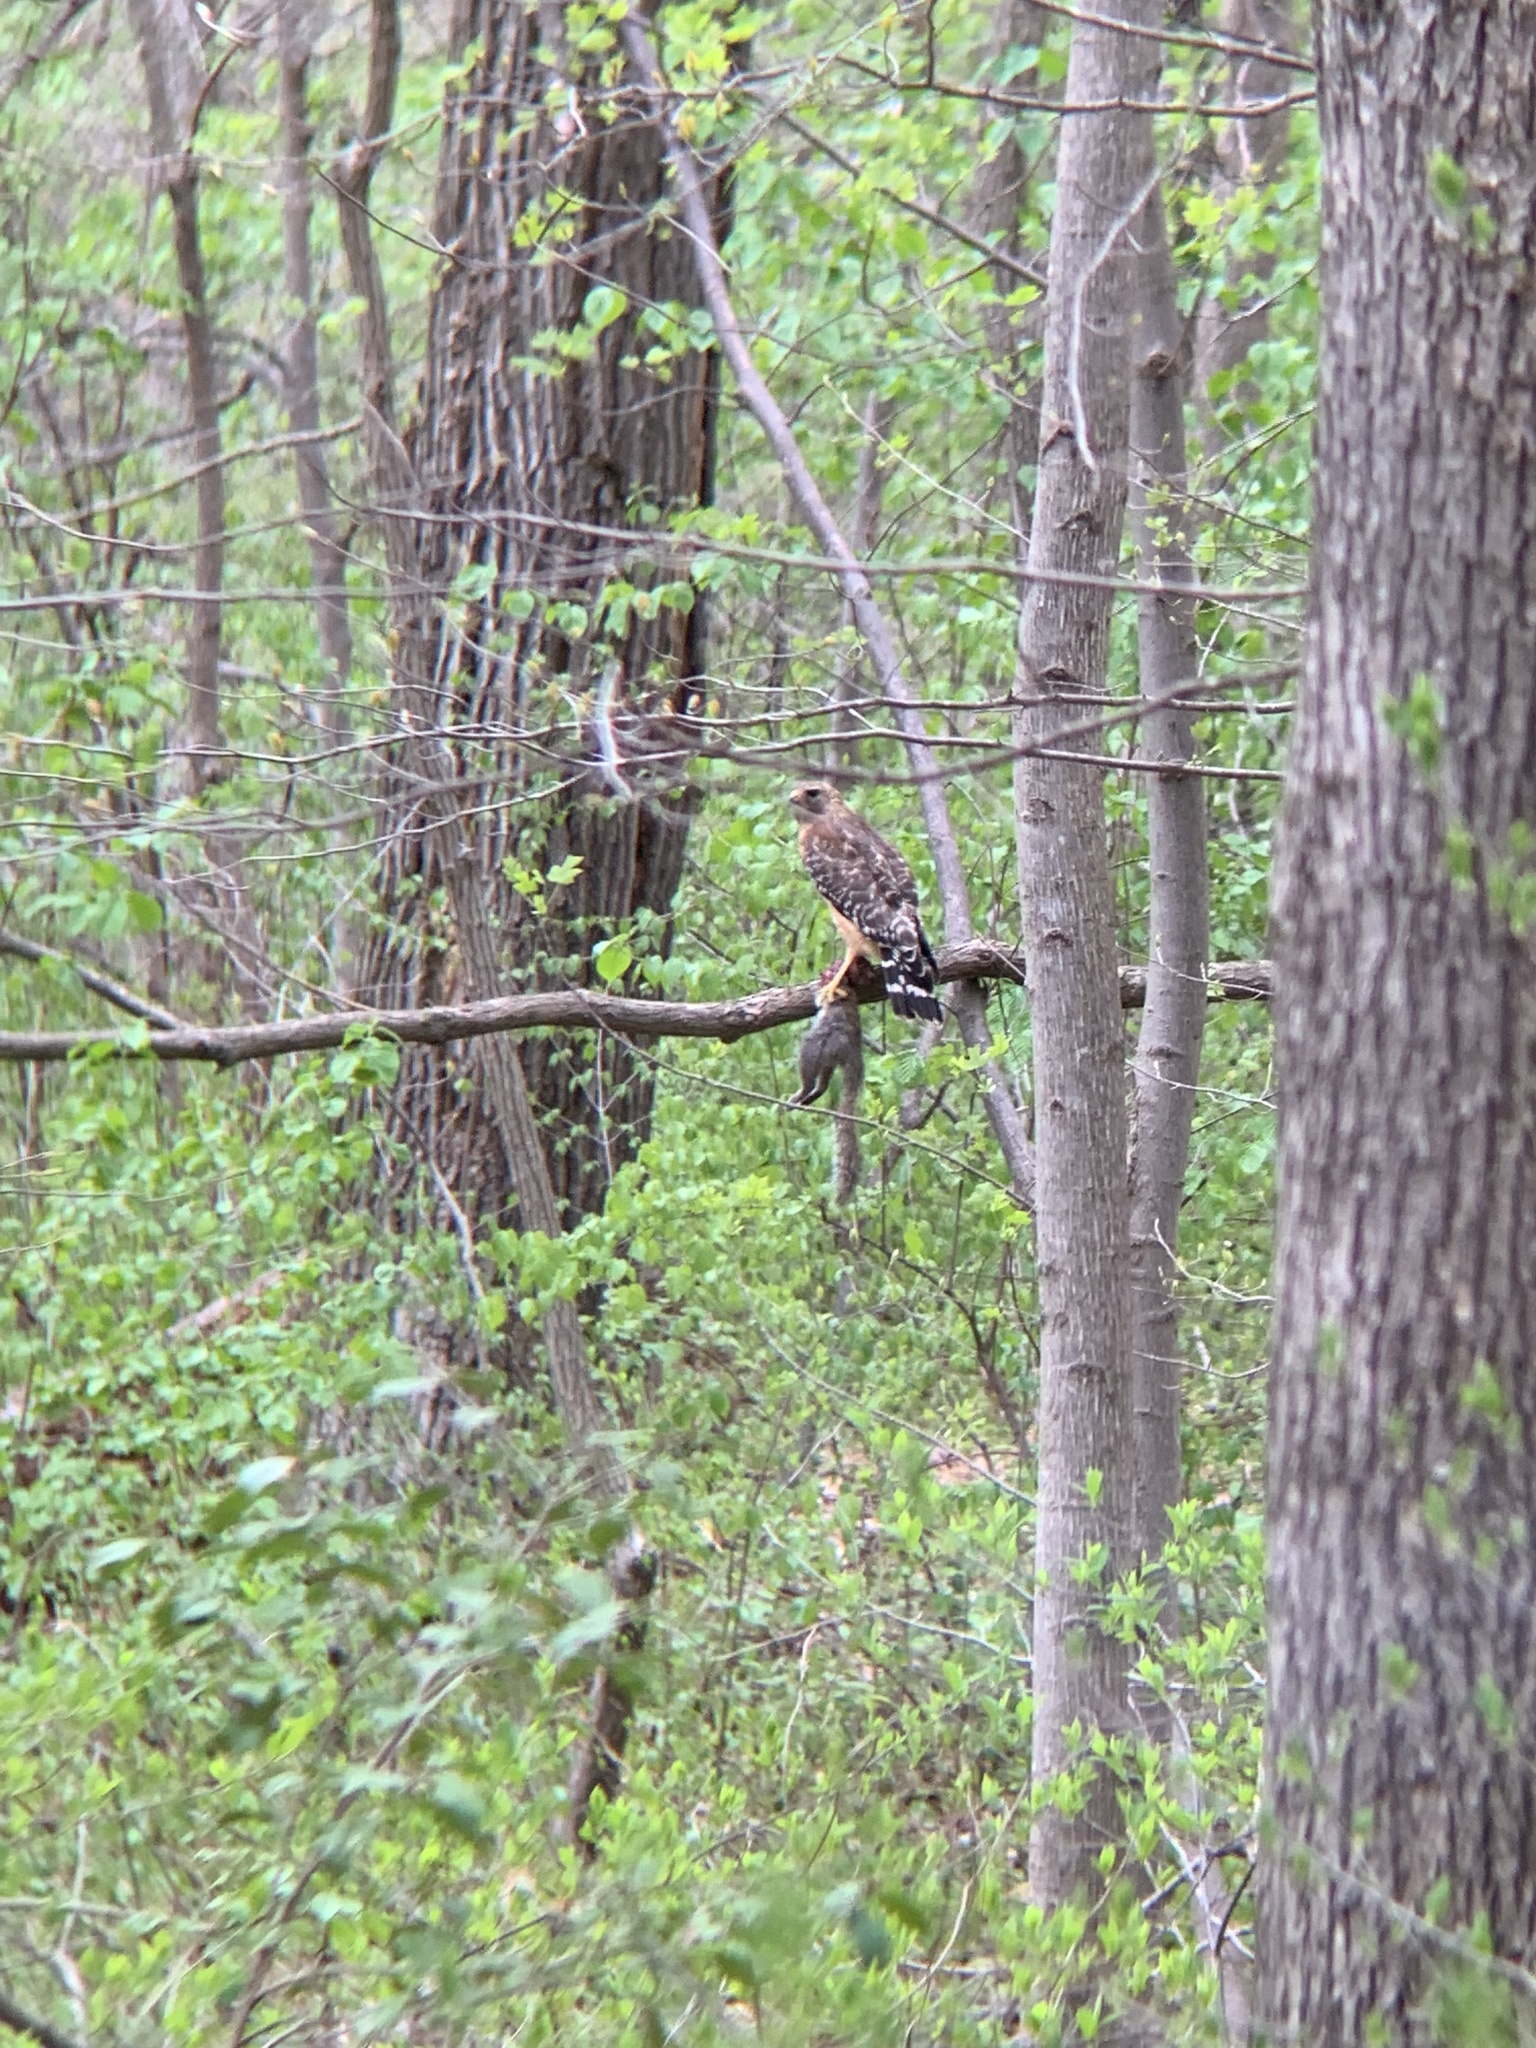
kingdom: Animalia
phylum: Chordata
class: Aves
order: Accipitriformes
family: Accipitridae
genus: Buteo
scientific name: Buteo lineatus
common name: Red-shouldered hawk
